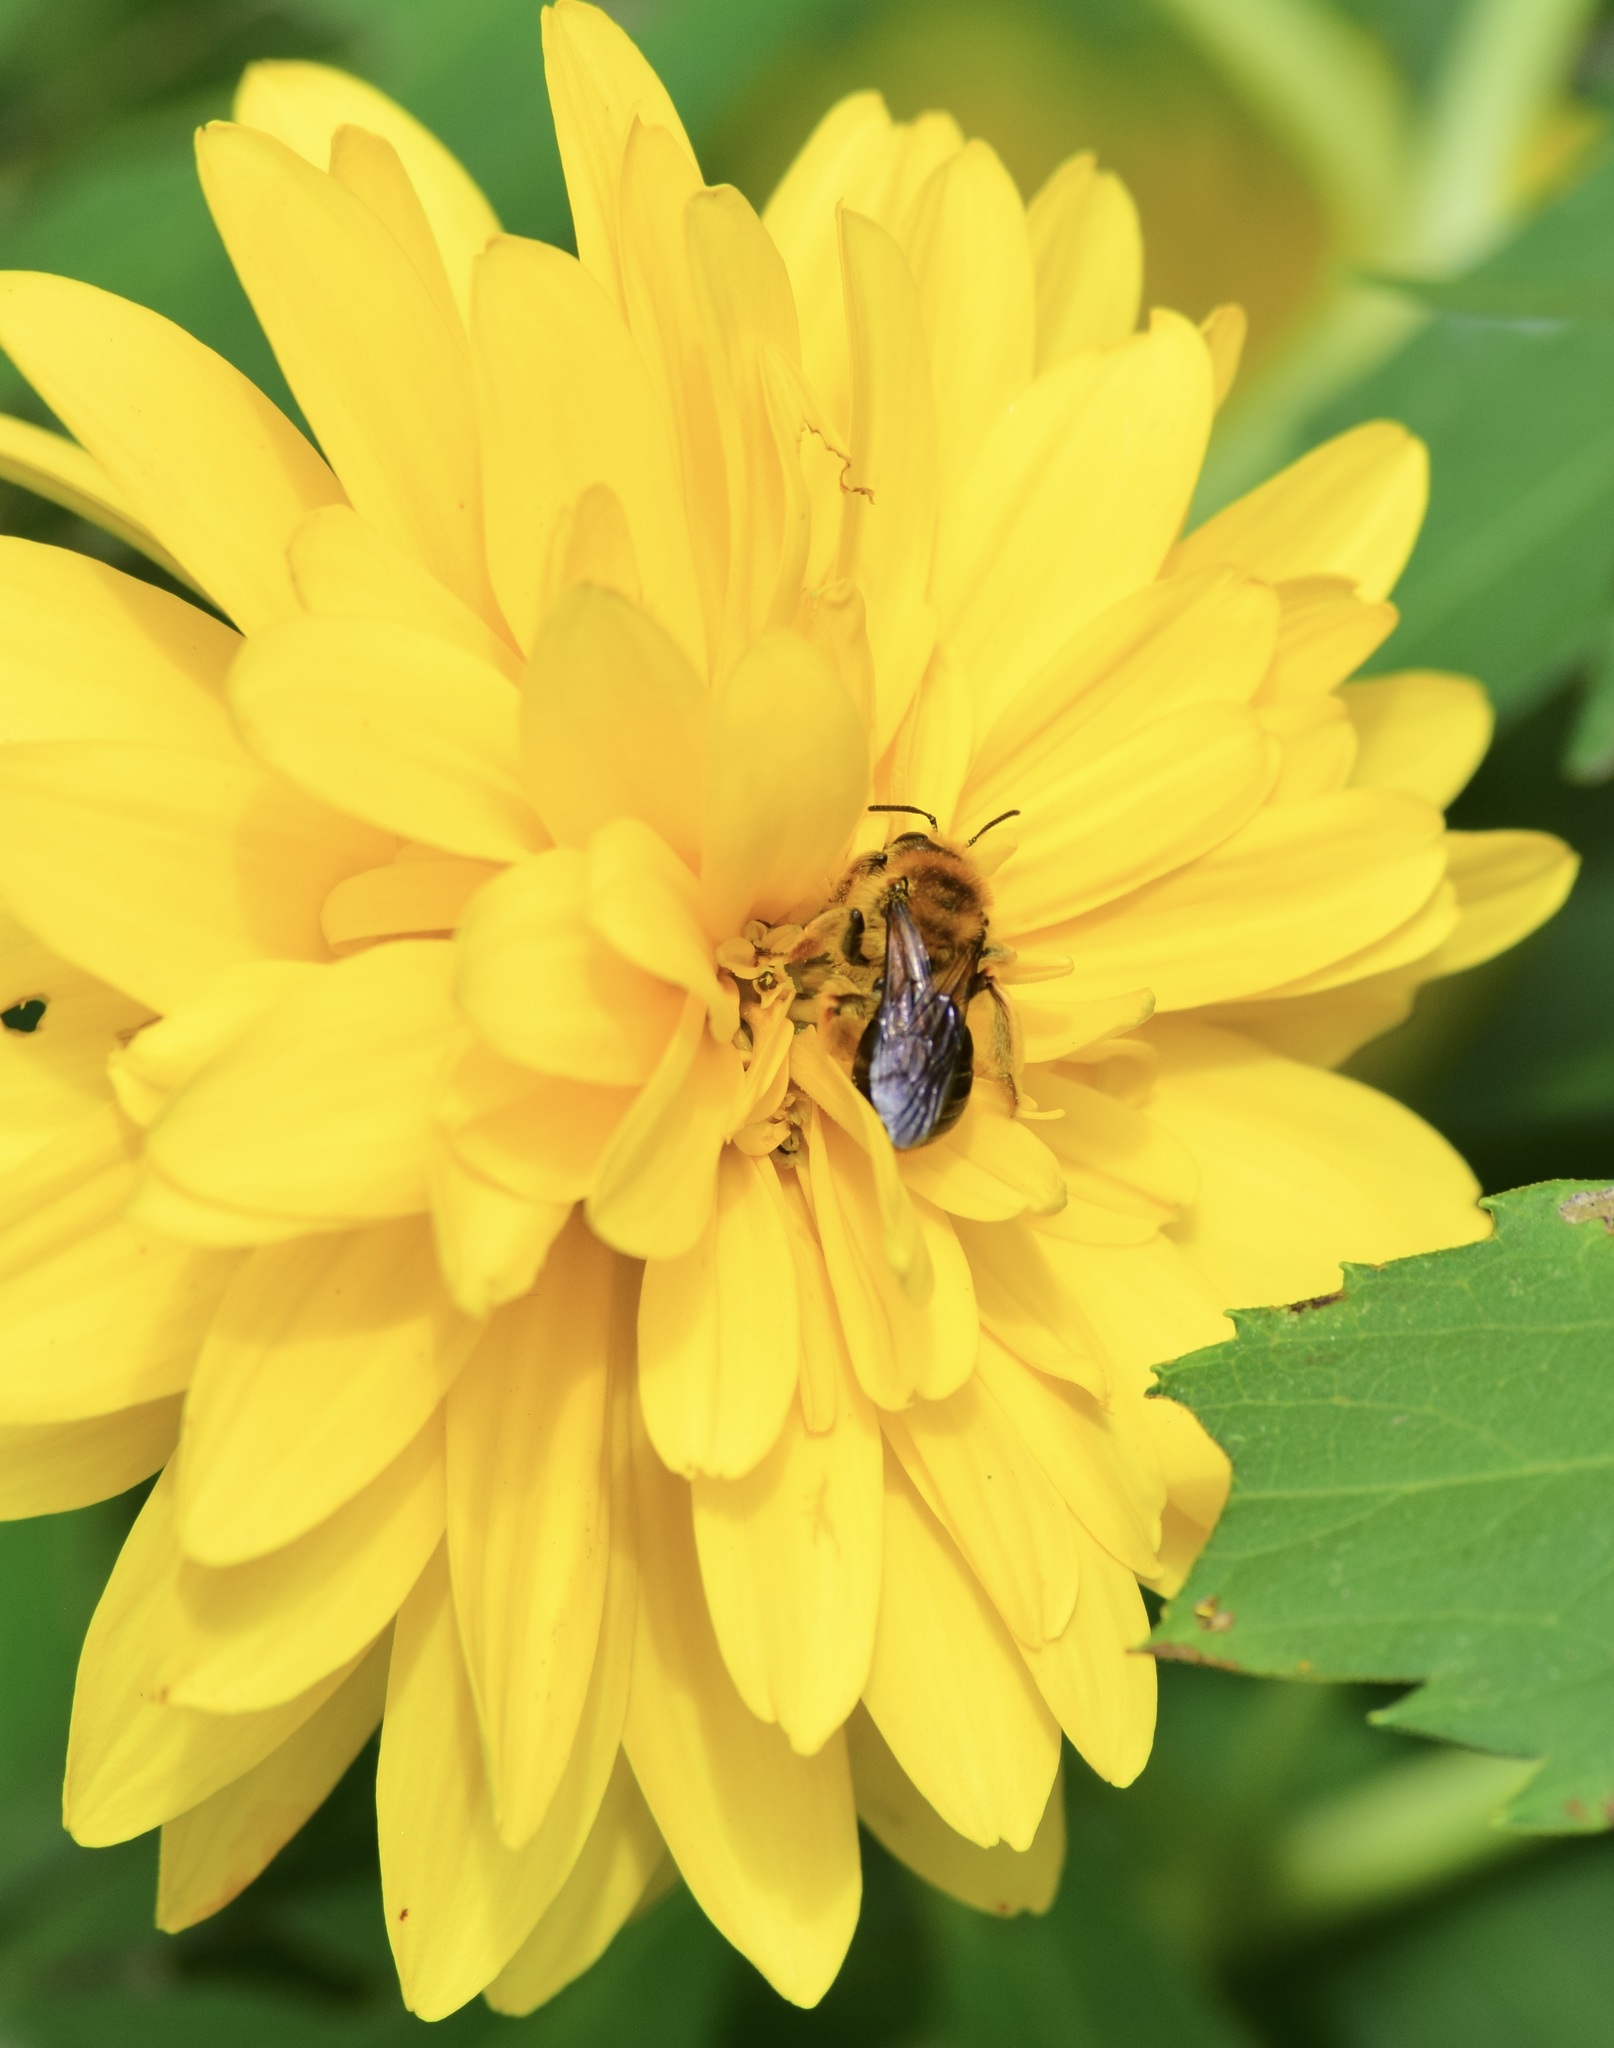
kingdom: Animalia
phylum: Arthropoda
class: Insecta
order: Hymenoptera
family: Andrenidae
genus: Andrena
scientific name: Andrena helianthi
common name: Sunflower mining bee
